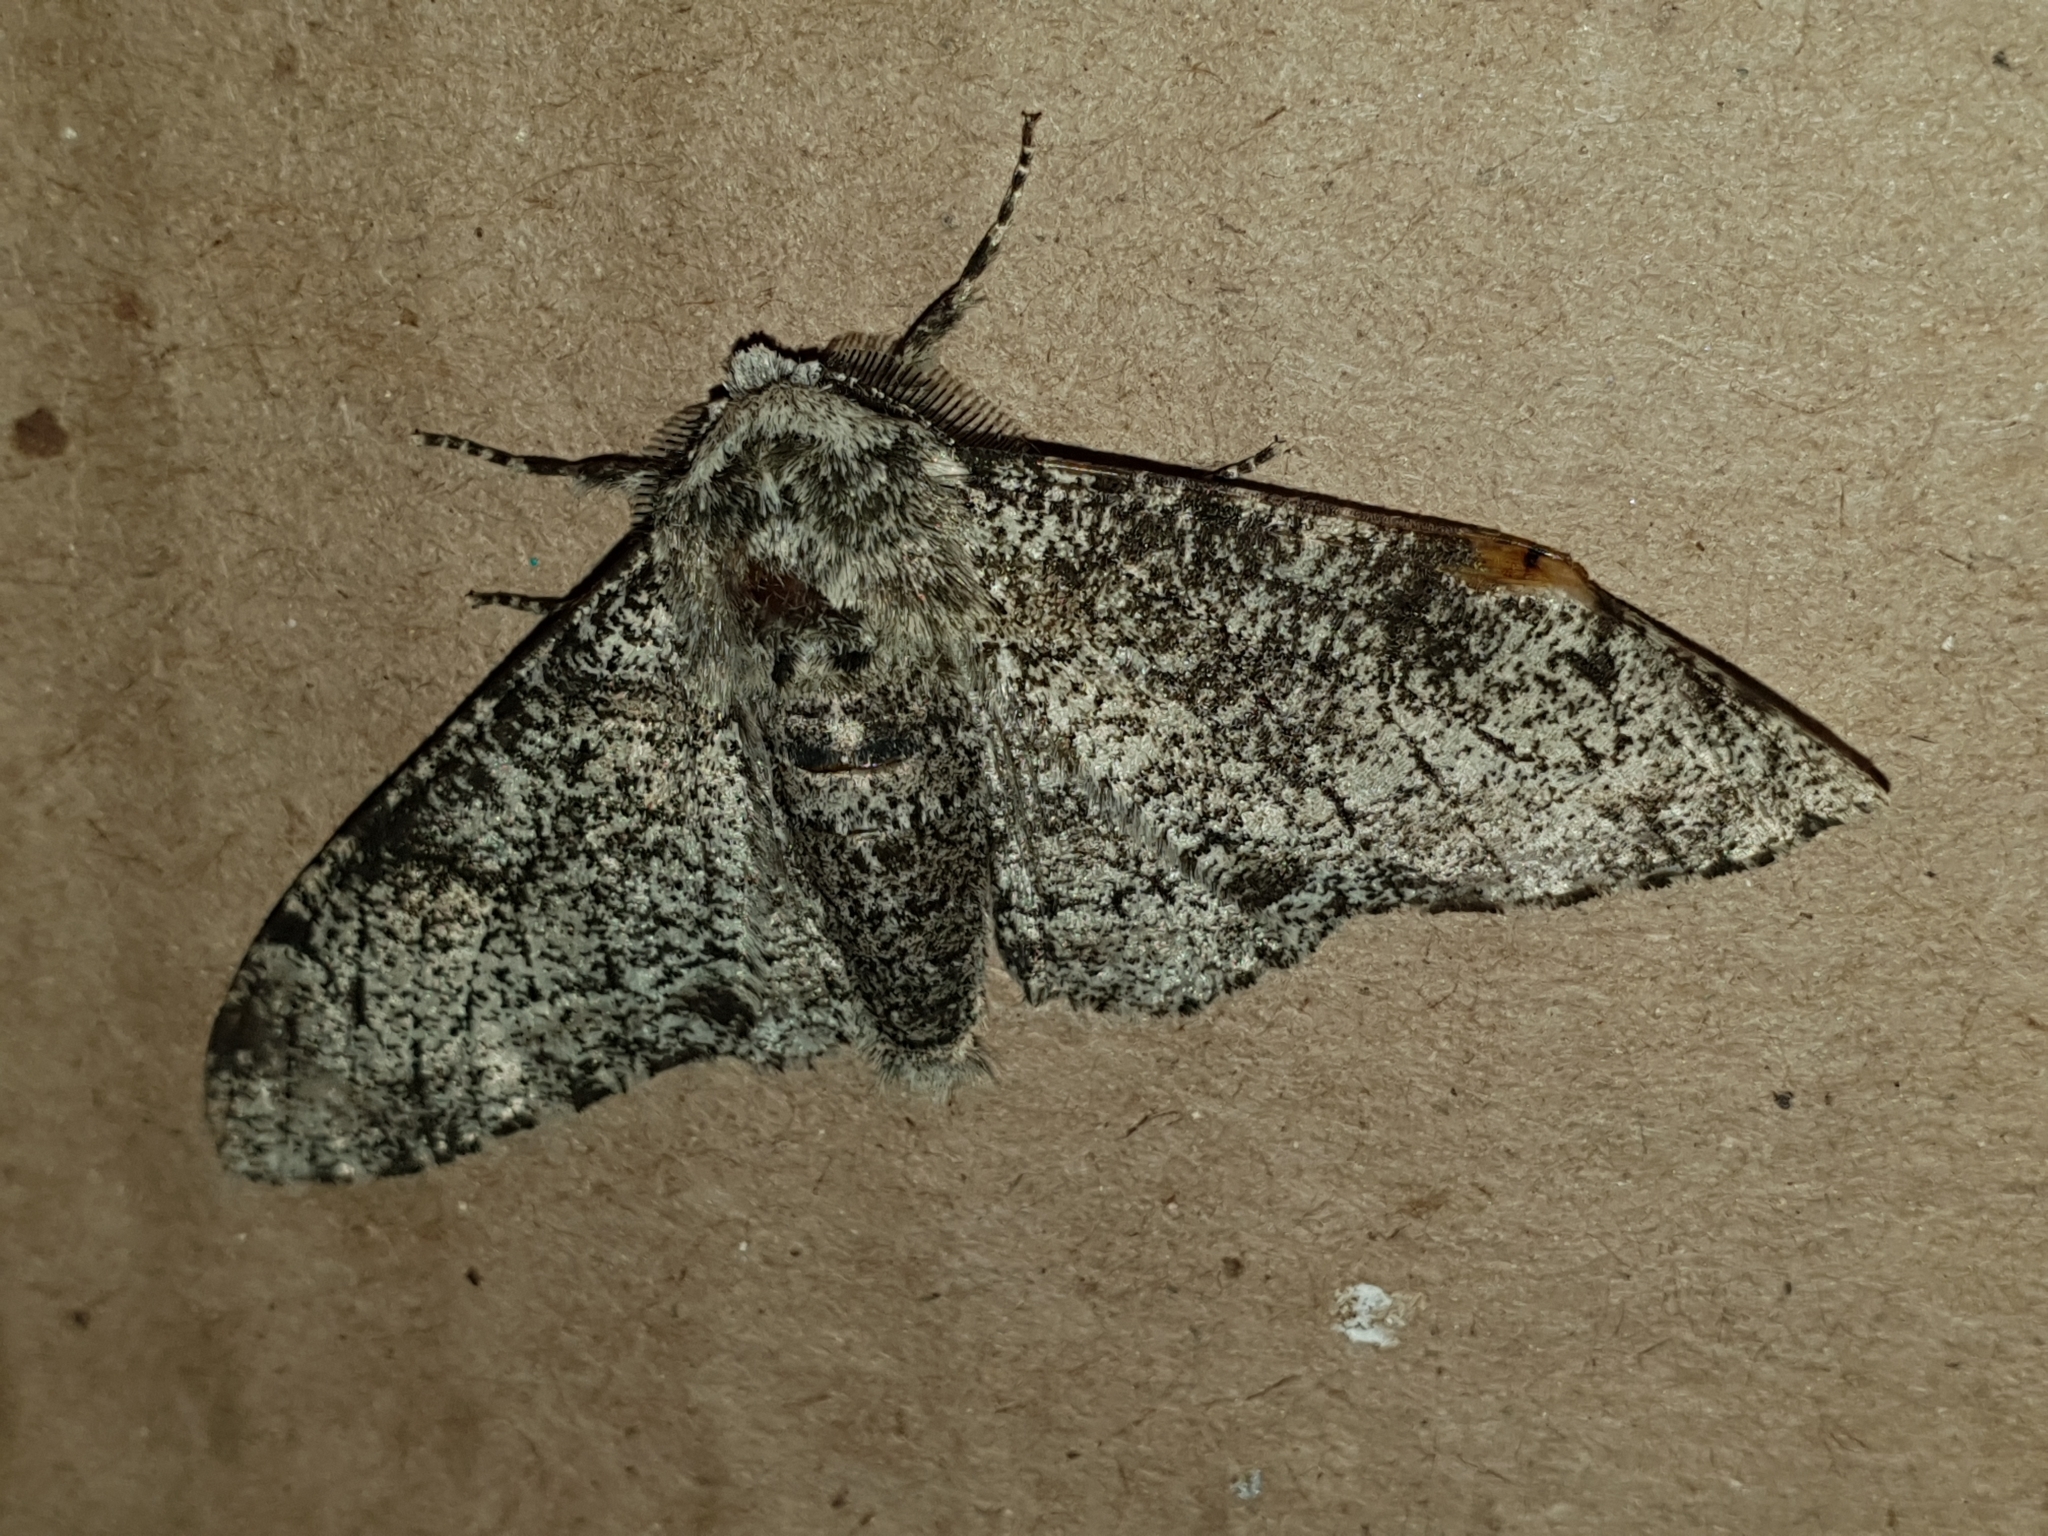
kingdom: Animalia
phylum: Arthropoda
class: Insecta
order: Lepidoptera
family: Geometridae
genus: Biston
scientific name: Biston betularia
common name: Peppered moth
